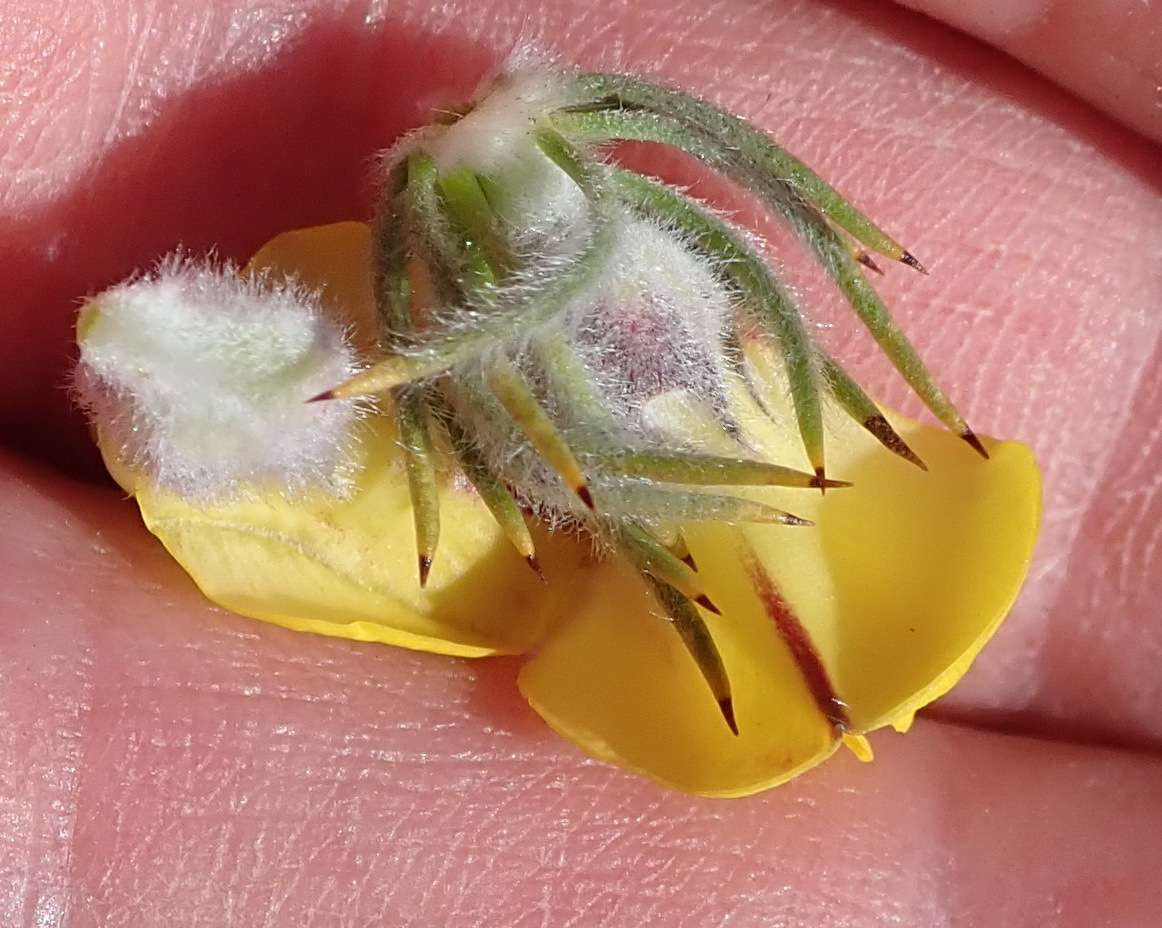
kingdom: Plantae
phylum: Tracheophyta
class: Magnoliopsida
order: Fabales
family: Fabaceae
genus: Aspalathus
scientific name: Aspalathus shawii
